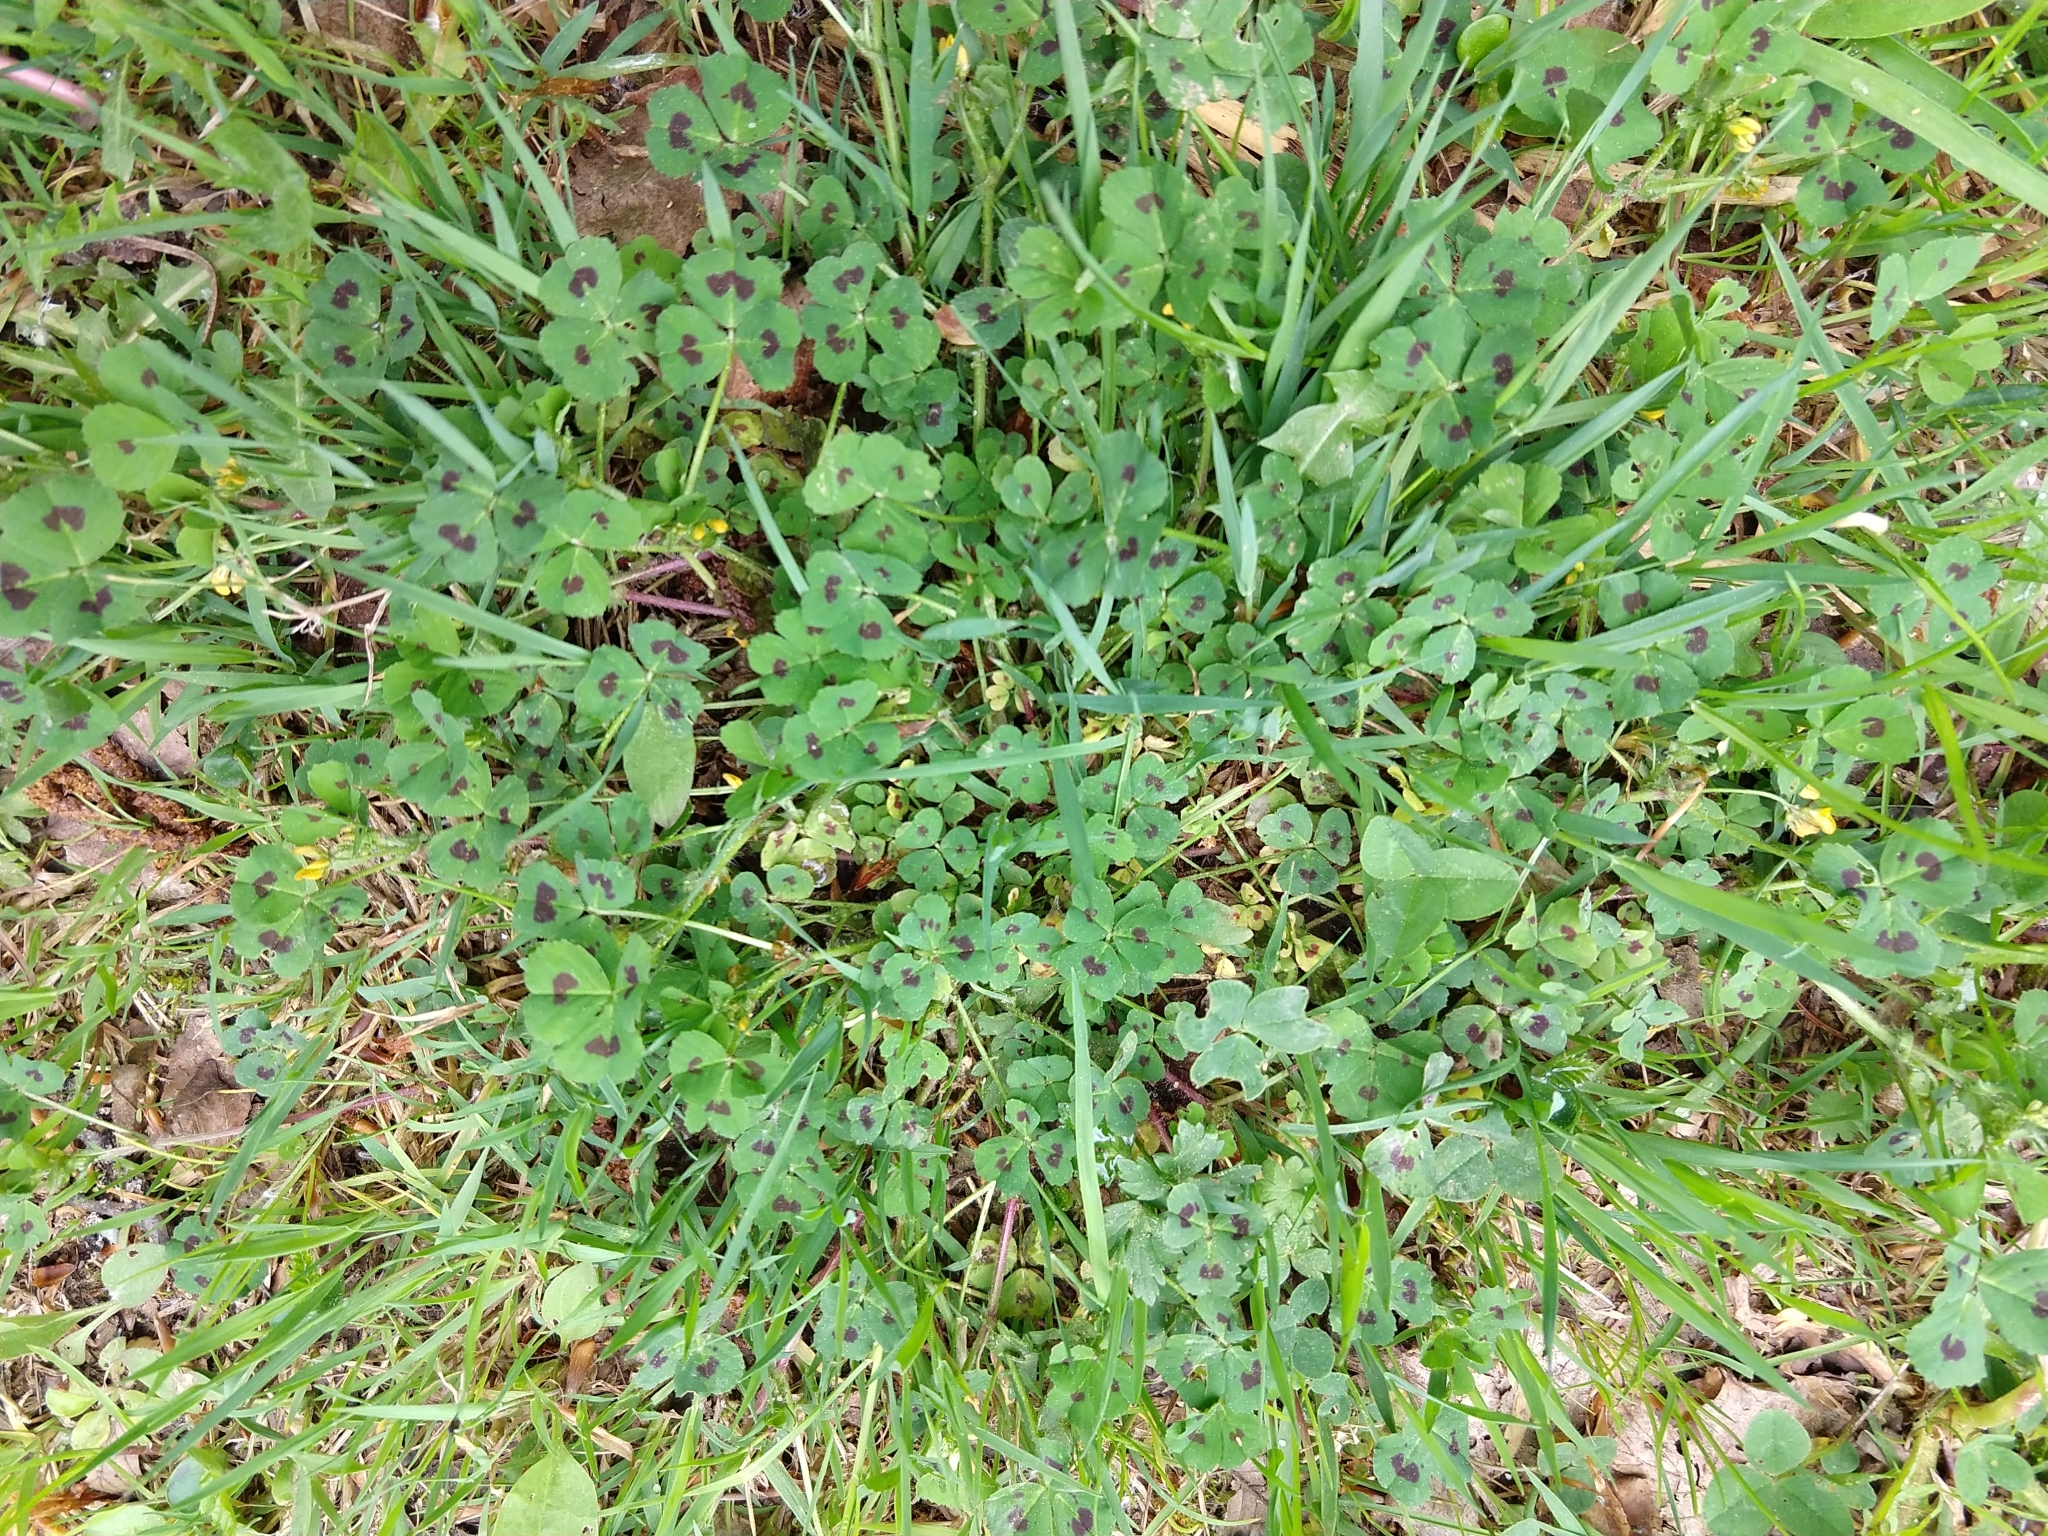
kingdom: Plantae
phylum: Tracheophyta
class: Magnoliopsida
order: Fabales
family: Fabaceae
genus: Medicago
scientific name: Medicago arabica
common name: Spotted medick
